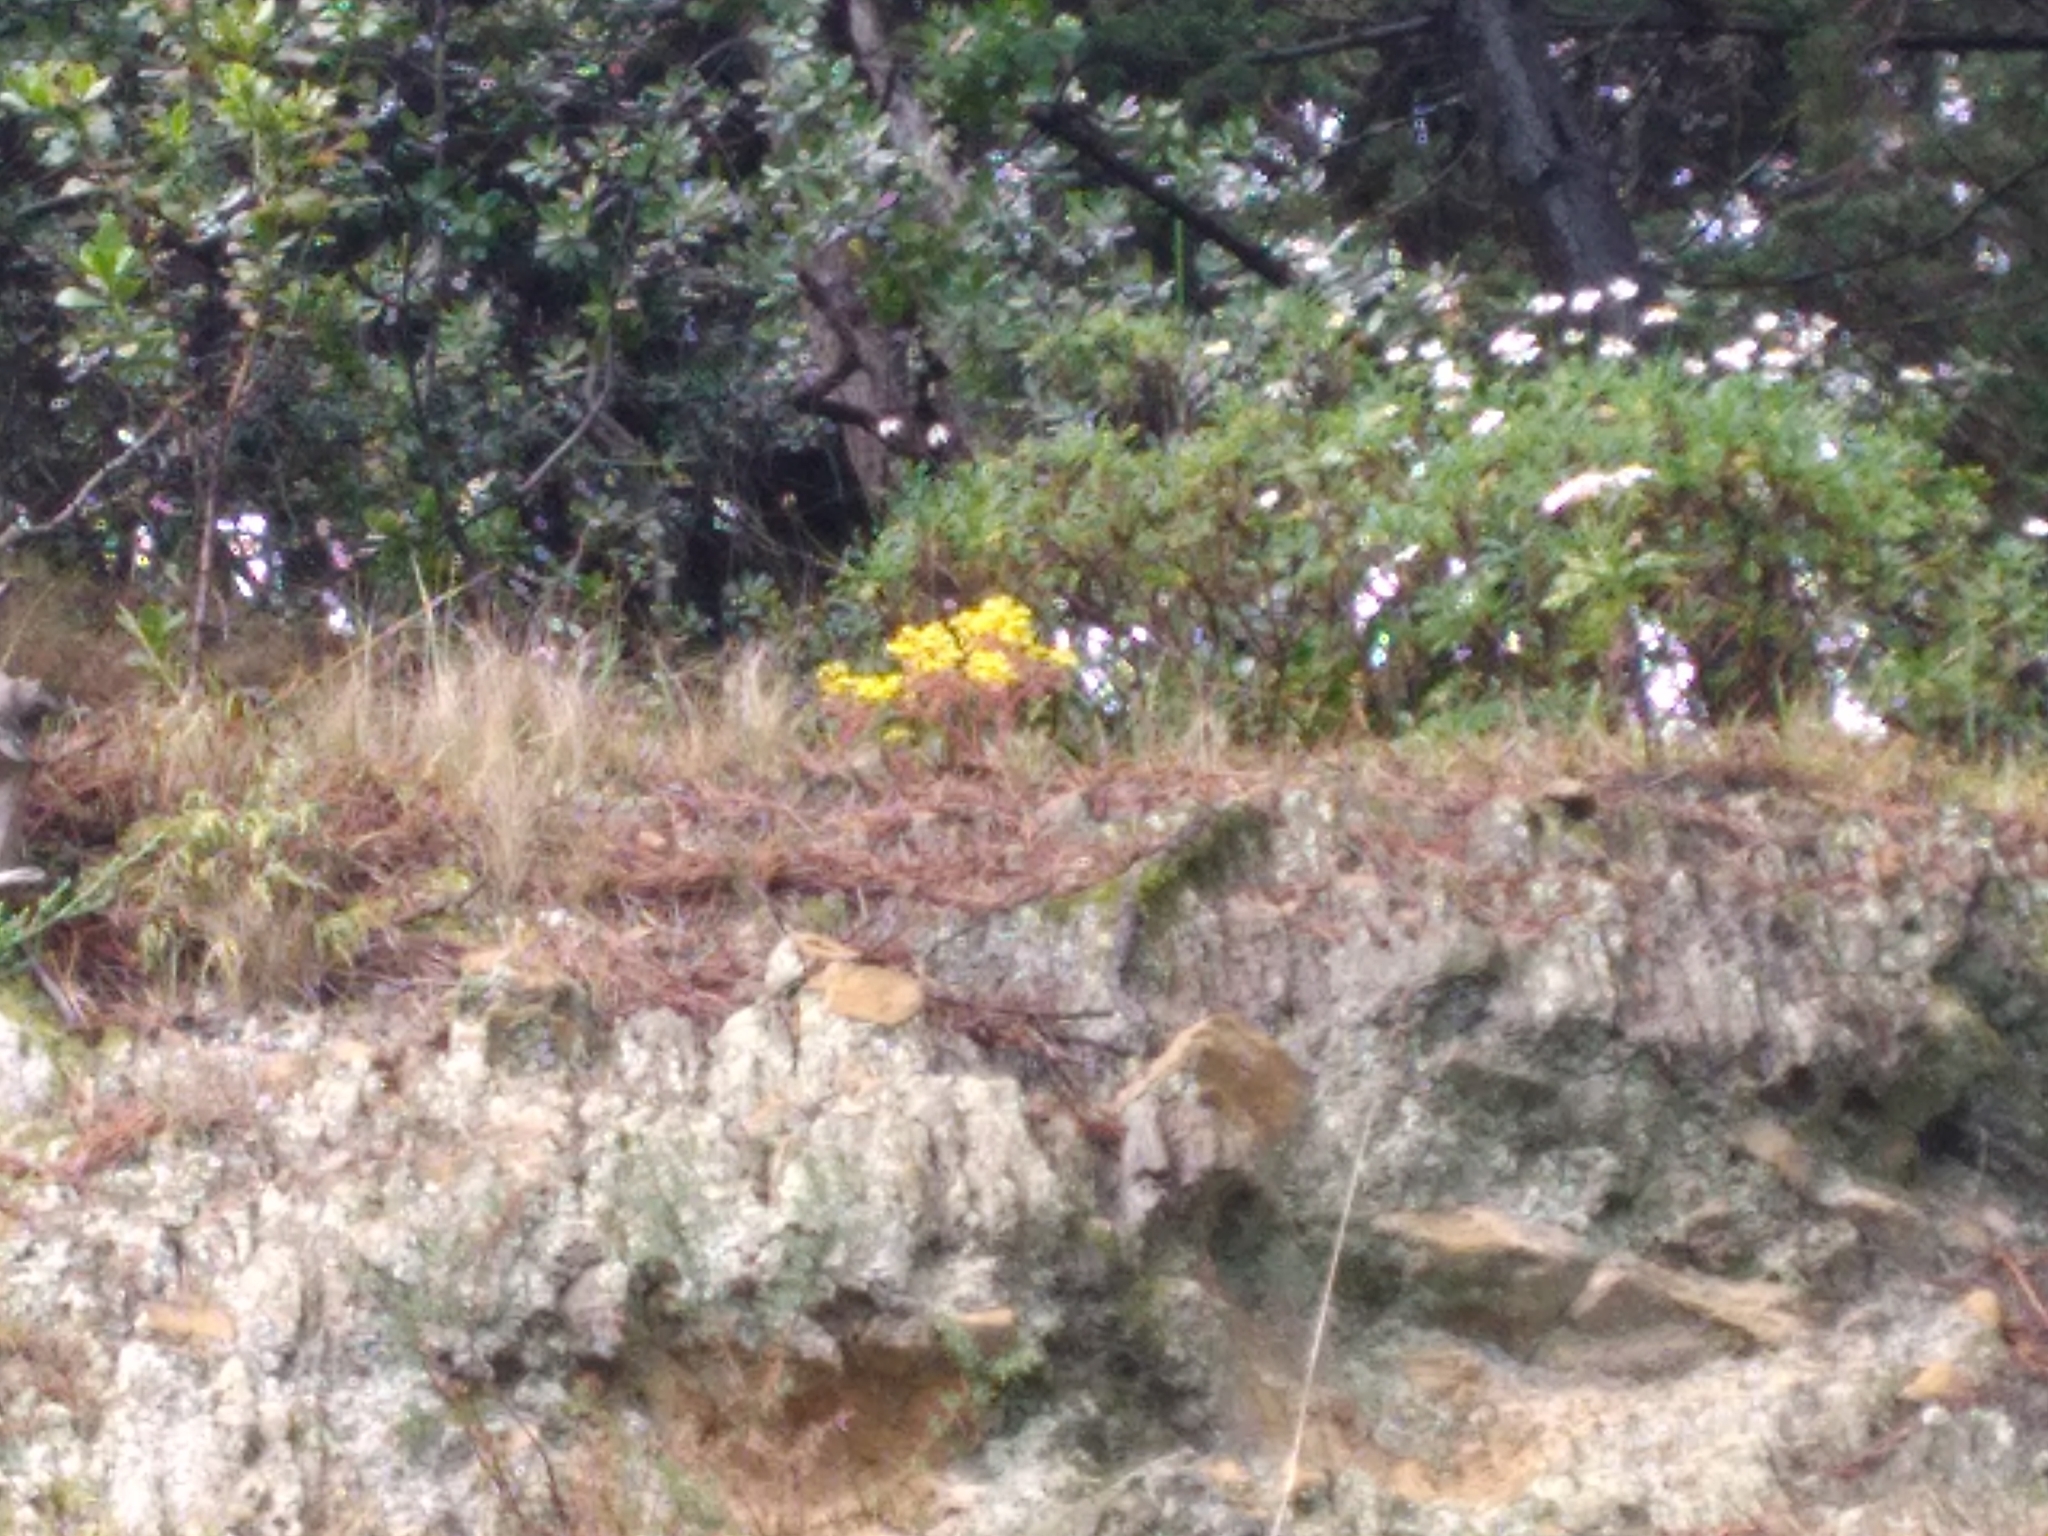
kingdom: Plantae
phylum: Tracheophyta
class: Magnoliopsida
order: Saxifragales
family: Crassulaceae
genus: Aichryson
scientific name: Aichryson laxum
